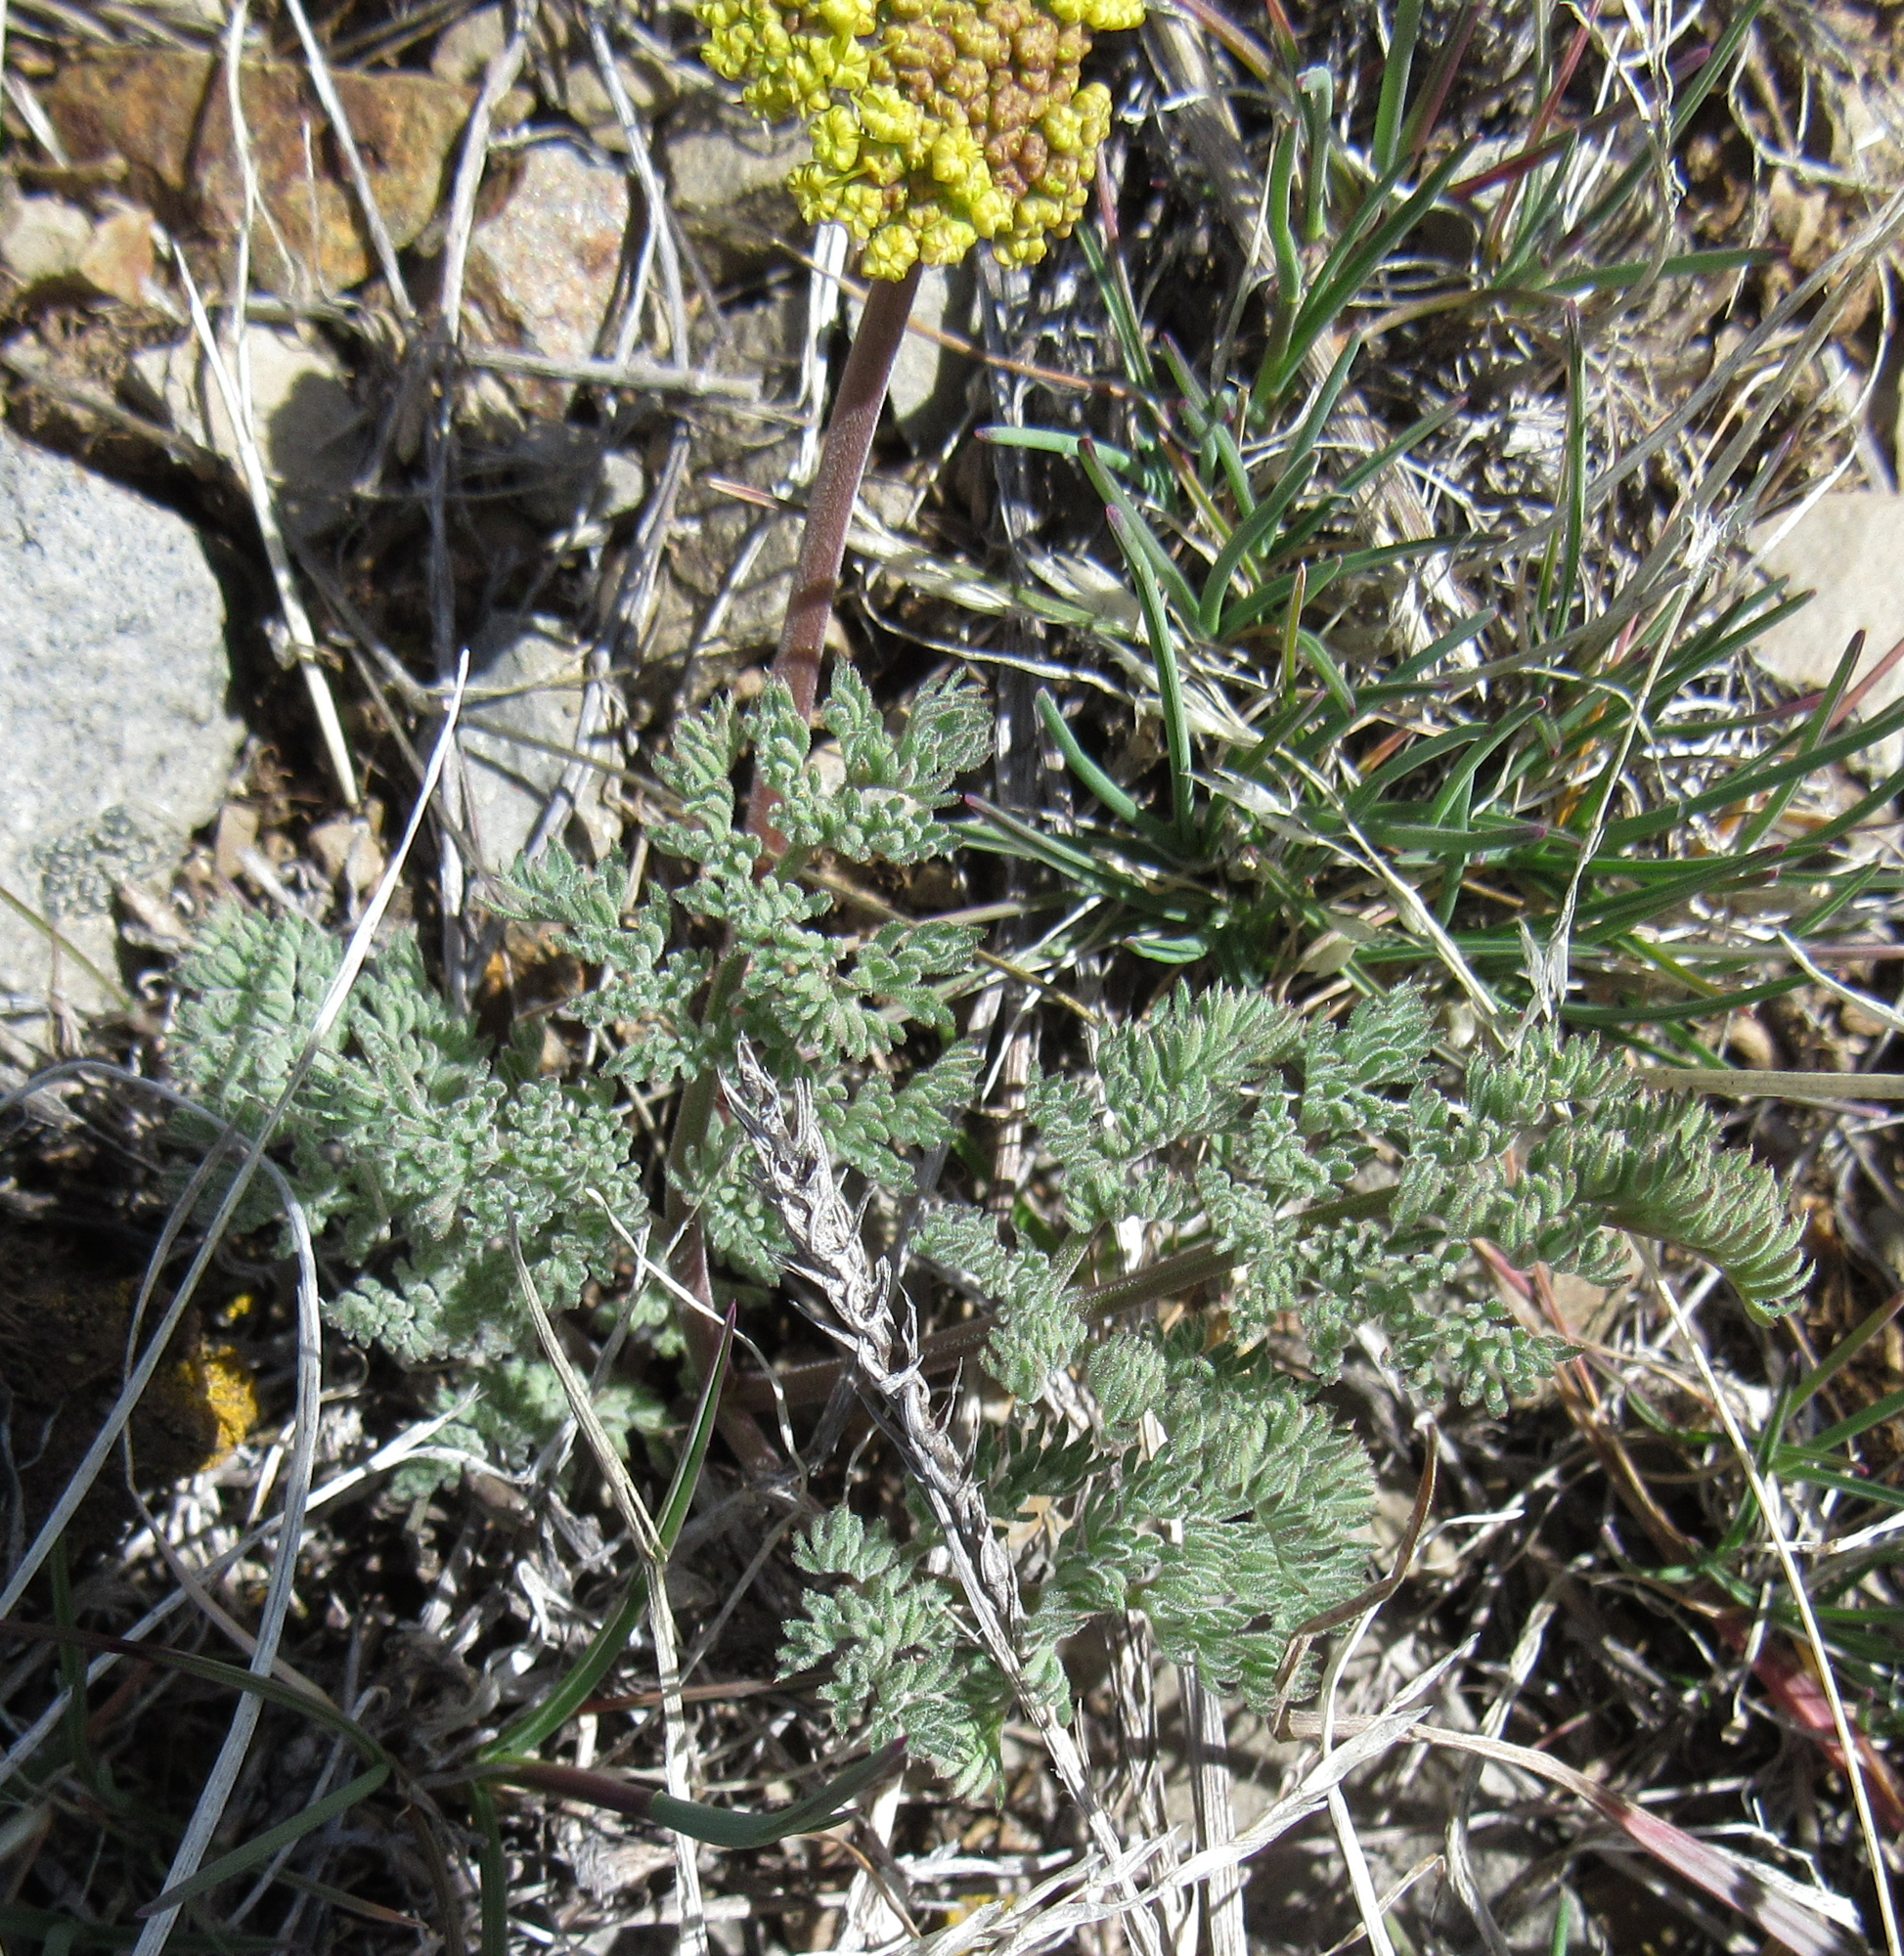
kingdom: Plantae
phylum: Tracheophyta
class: Magnoliopsida
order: Apiales
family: Apiaceae
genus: Lomatium
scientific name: Lomatium foeniculaceum
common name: Desert-parsley
